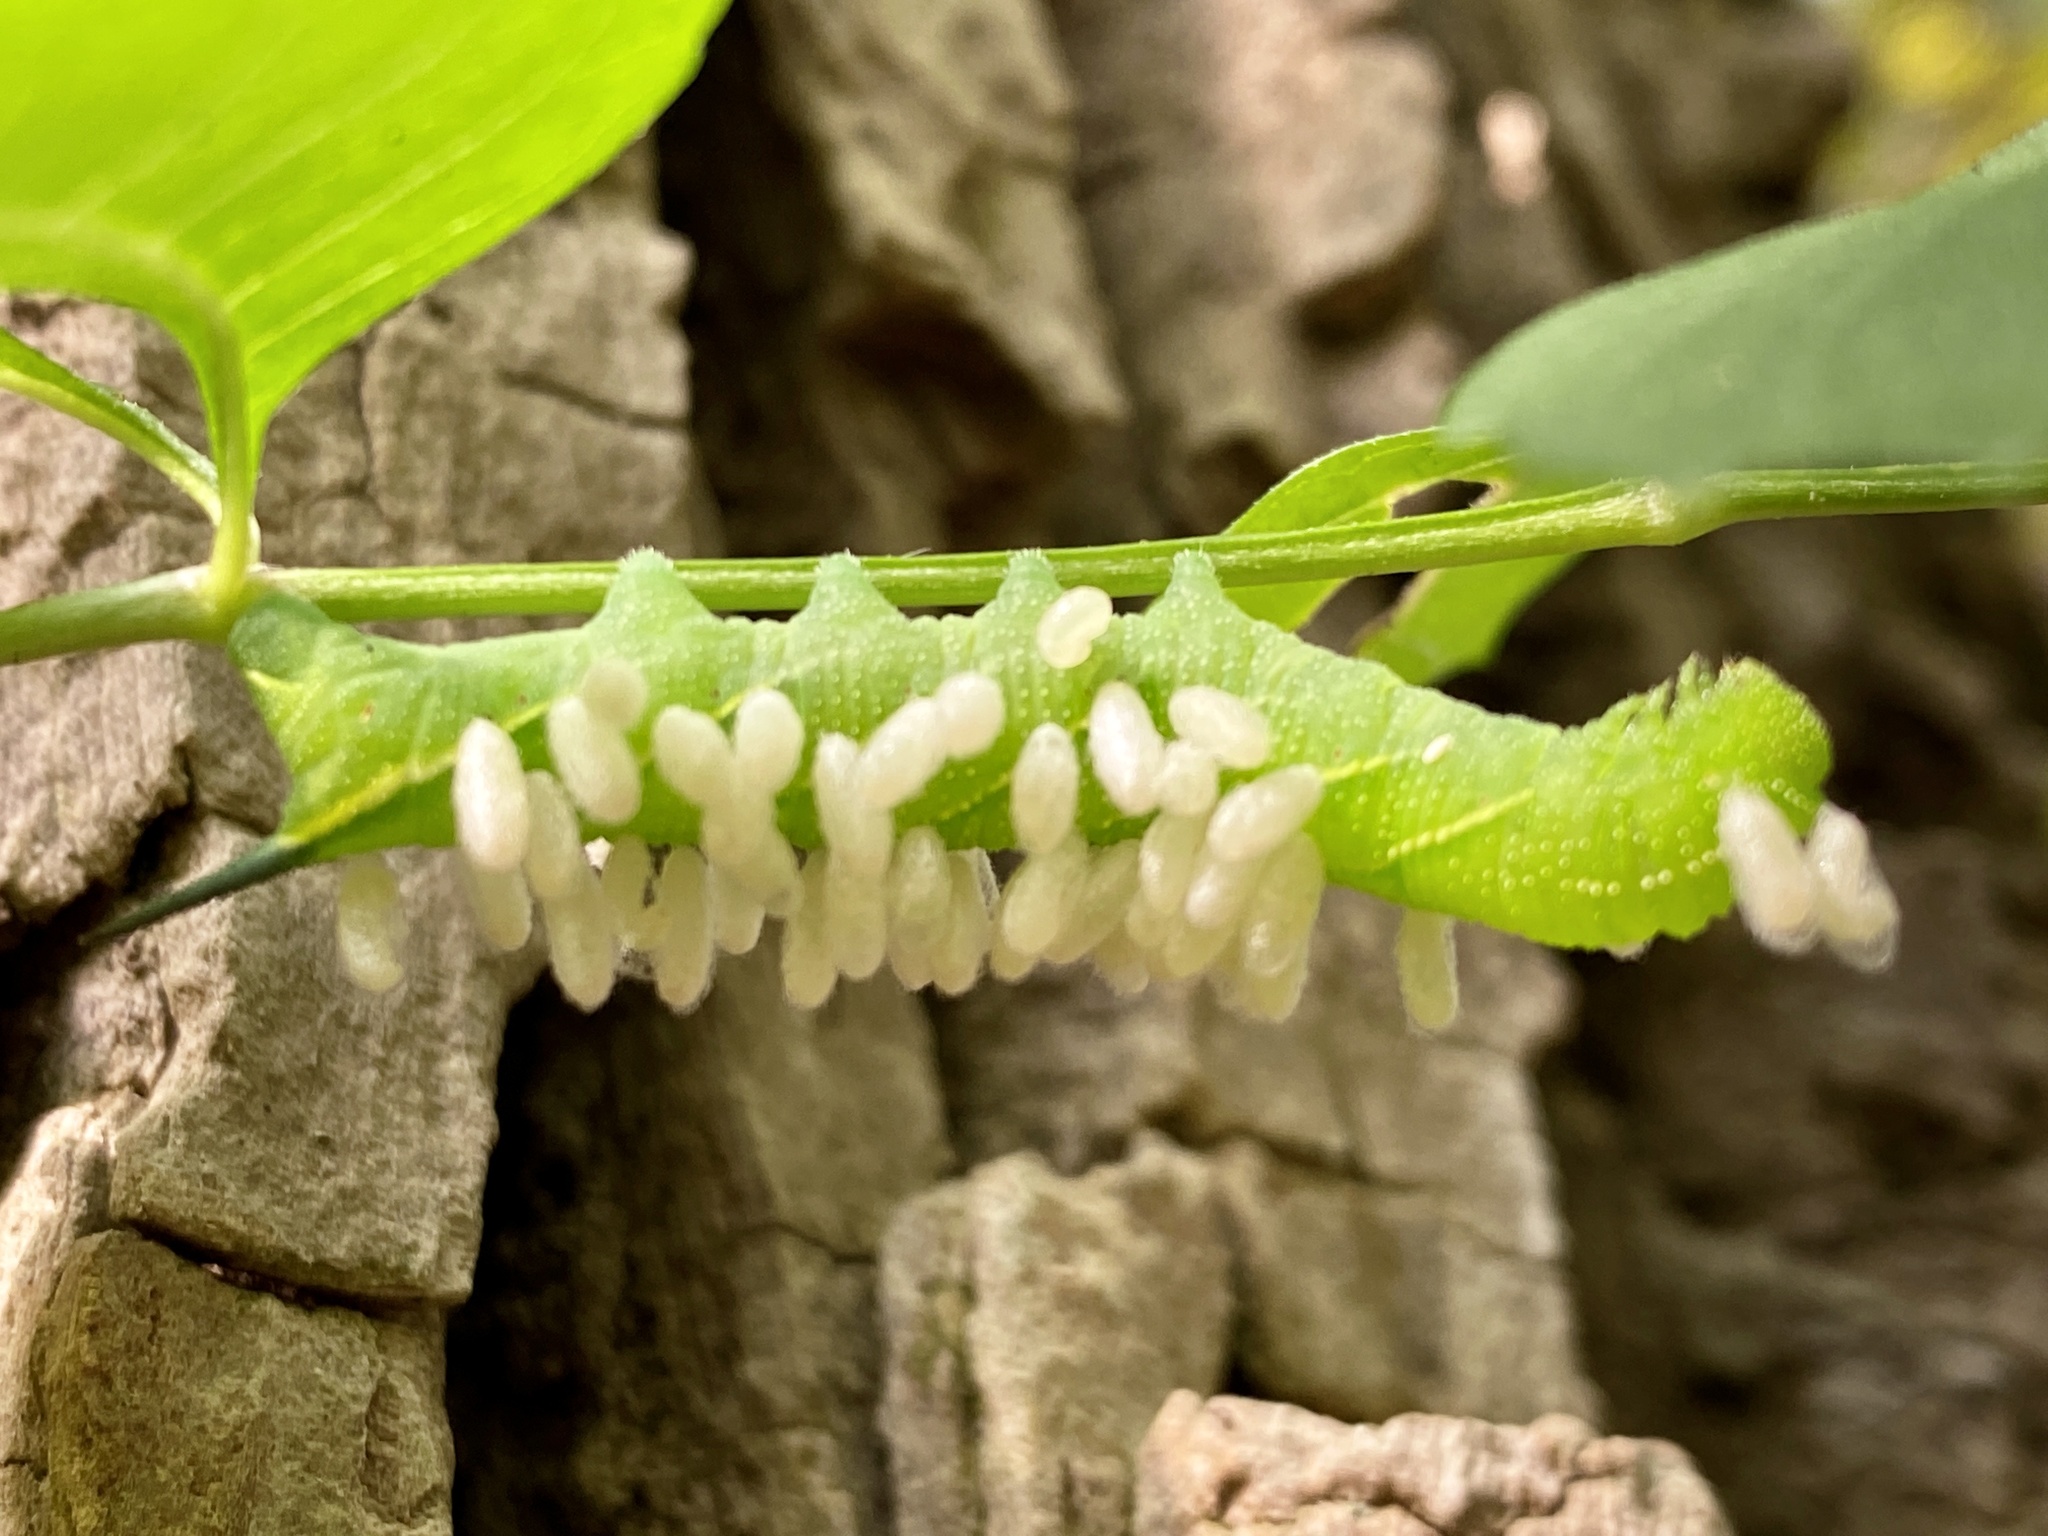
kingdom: Animalia
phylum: Arthropoda
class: Insecta
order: Lepidoptera
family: Sphingidae
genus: Paratrea
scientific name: Paratrea plebeja
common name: Plebian sphinx
